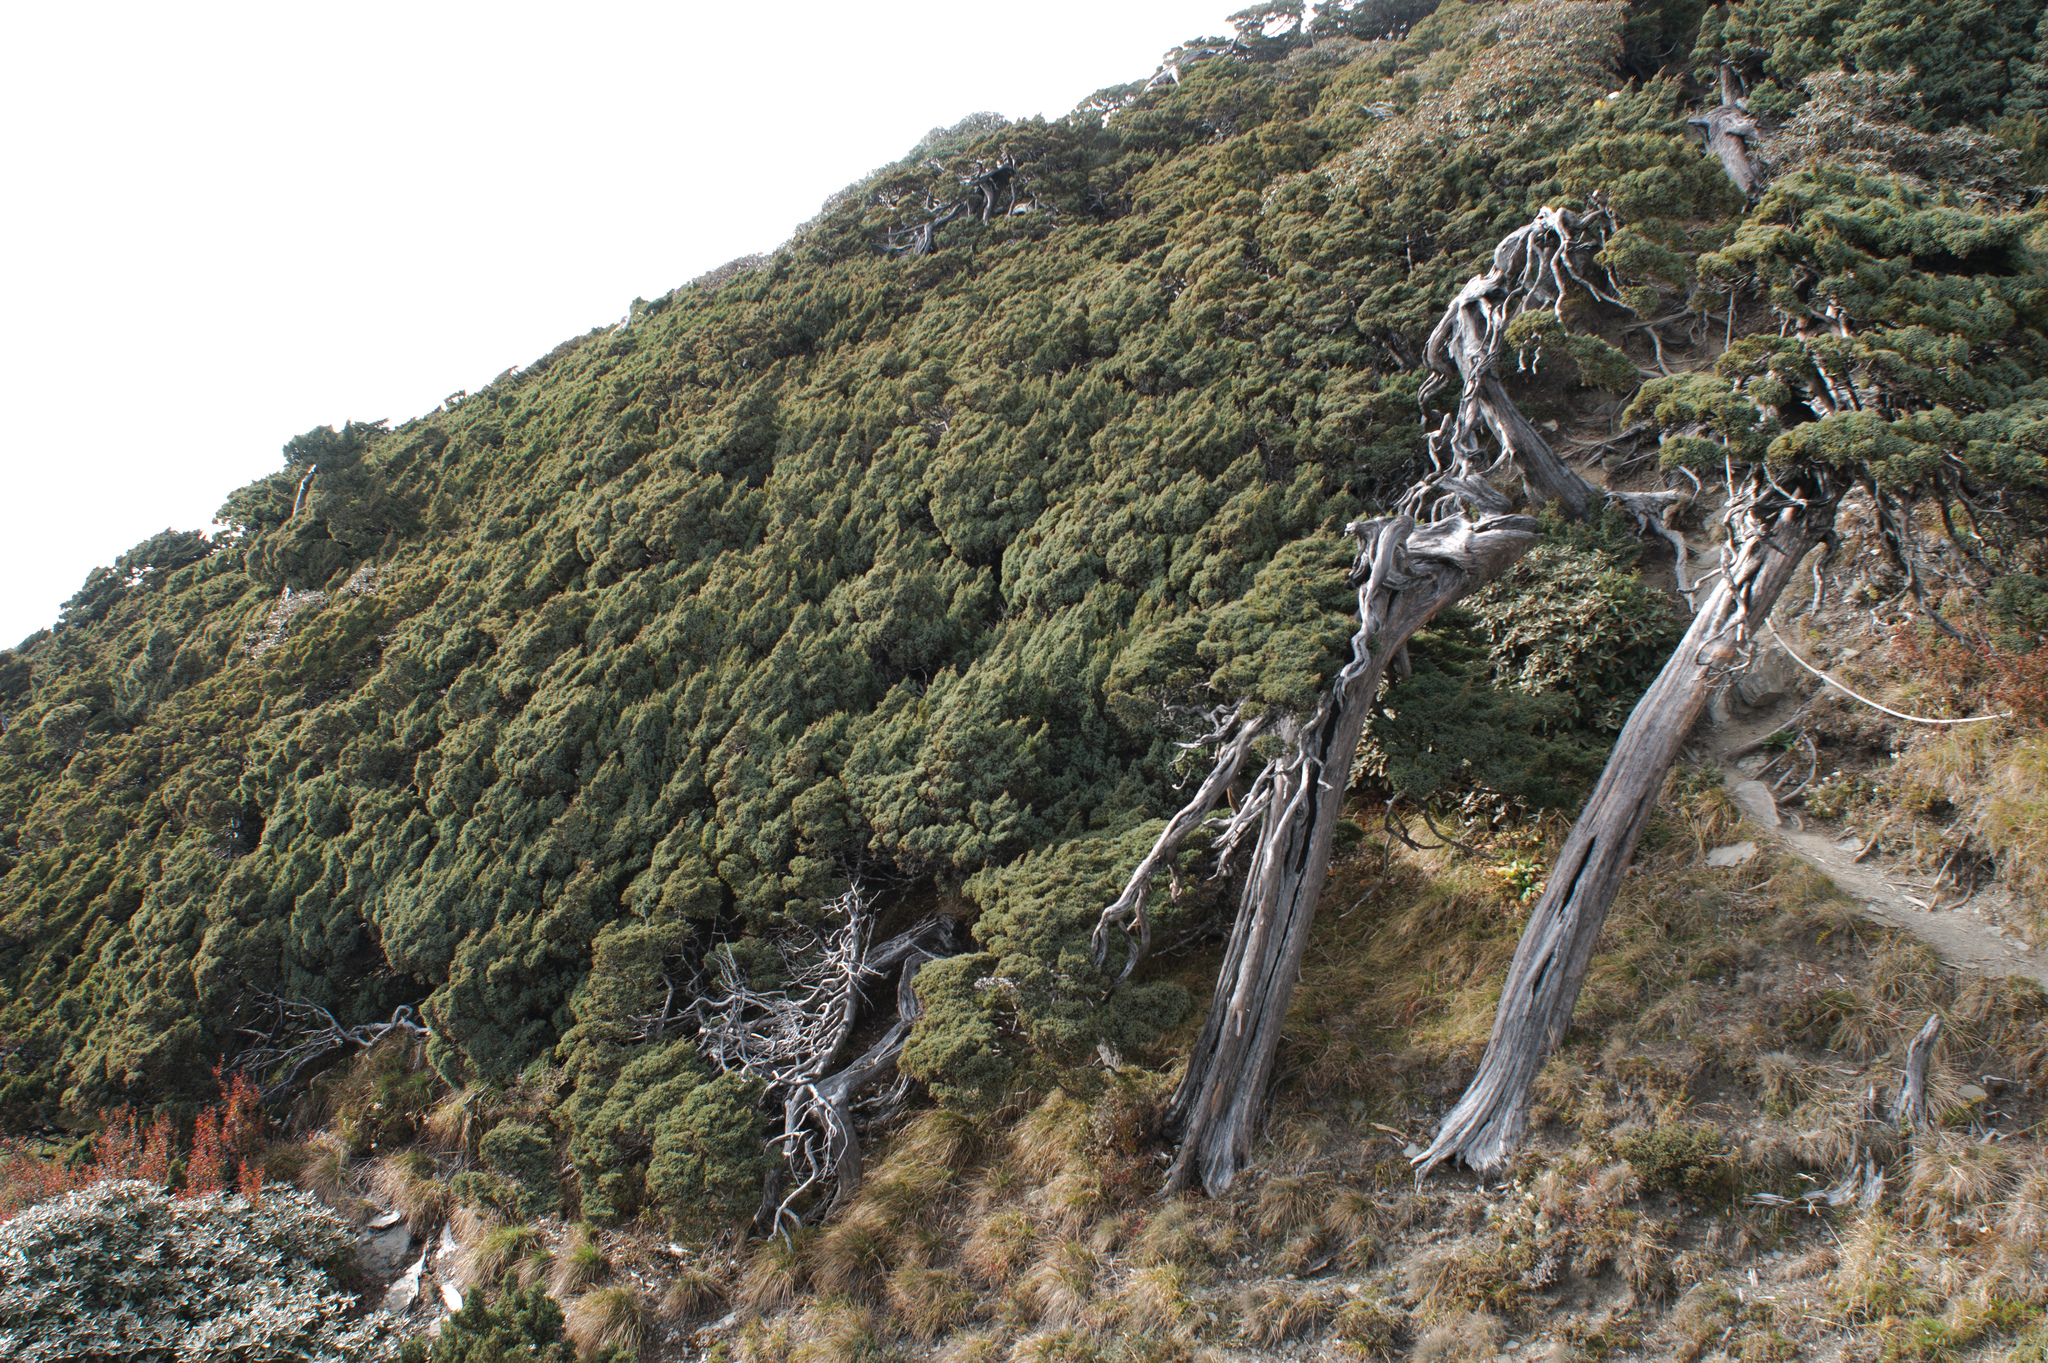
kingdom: Plantae
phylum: Tracheophyta
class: Pinopsida
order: Pinales
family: Cupressaceae
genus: Juniperus
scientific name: Juniperus squamata
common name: Flaky juniper
